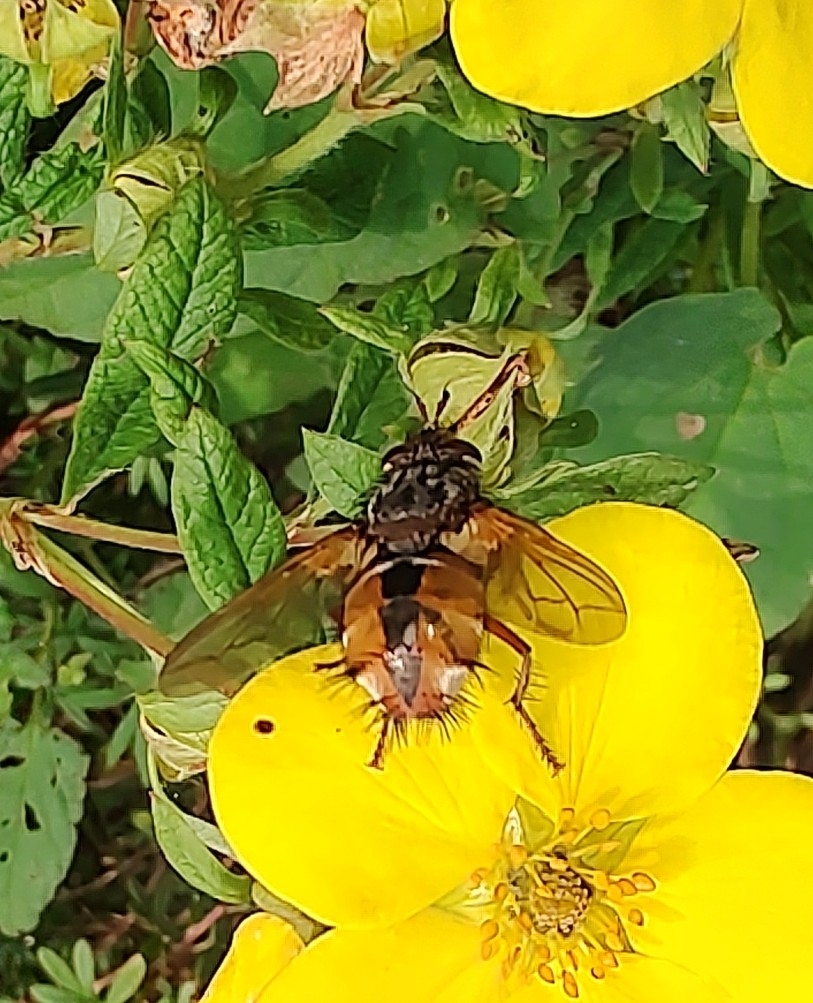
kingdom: Animalia
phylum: Arthropoda
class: Insecta
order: Diptera
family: Tachinidae
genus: Tachina
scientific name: Tachina fera
